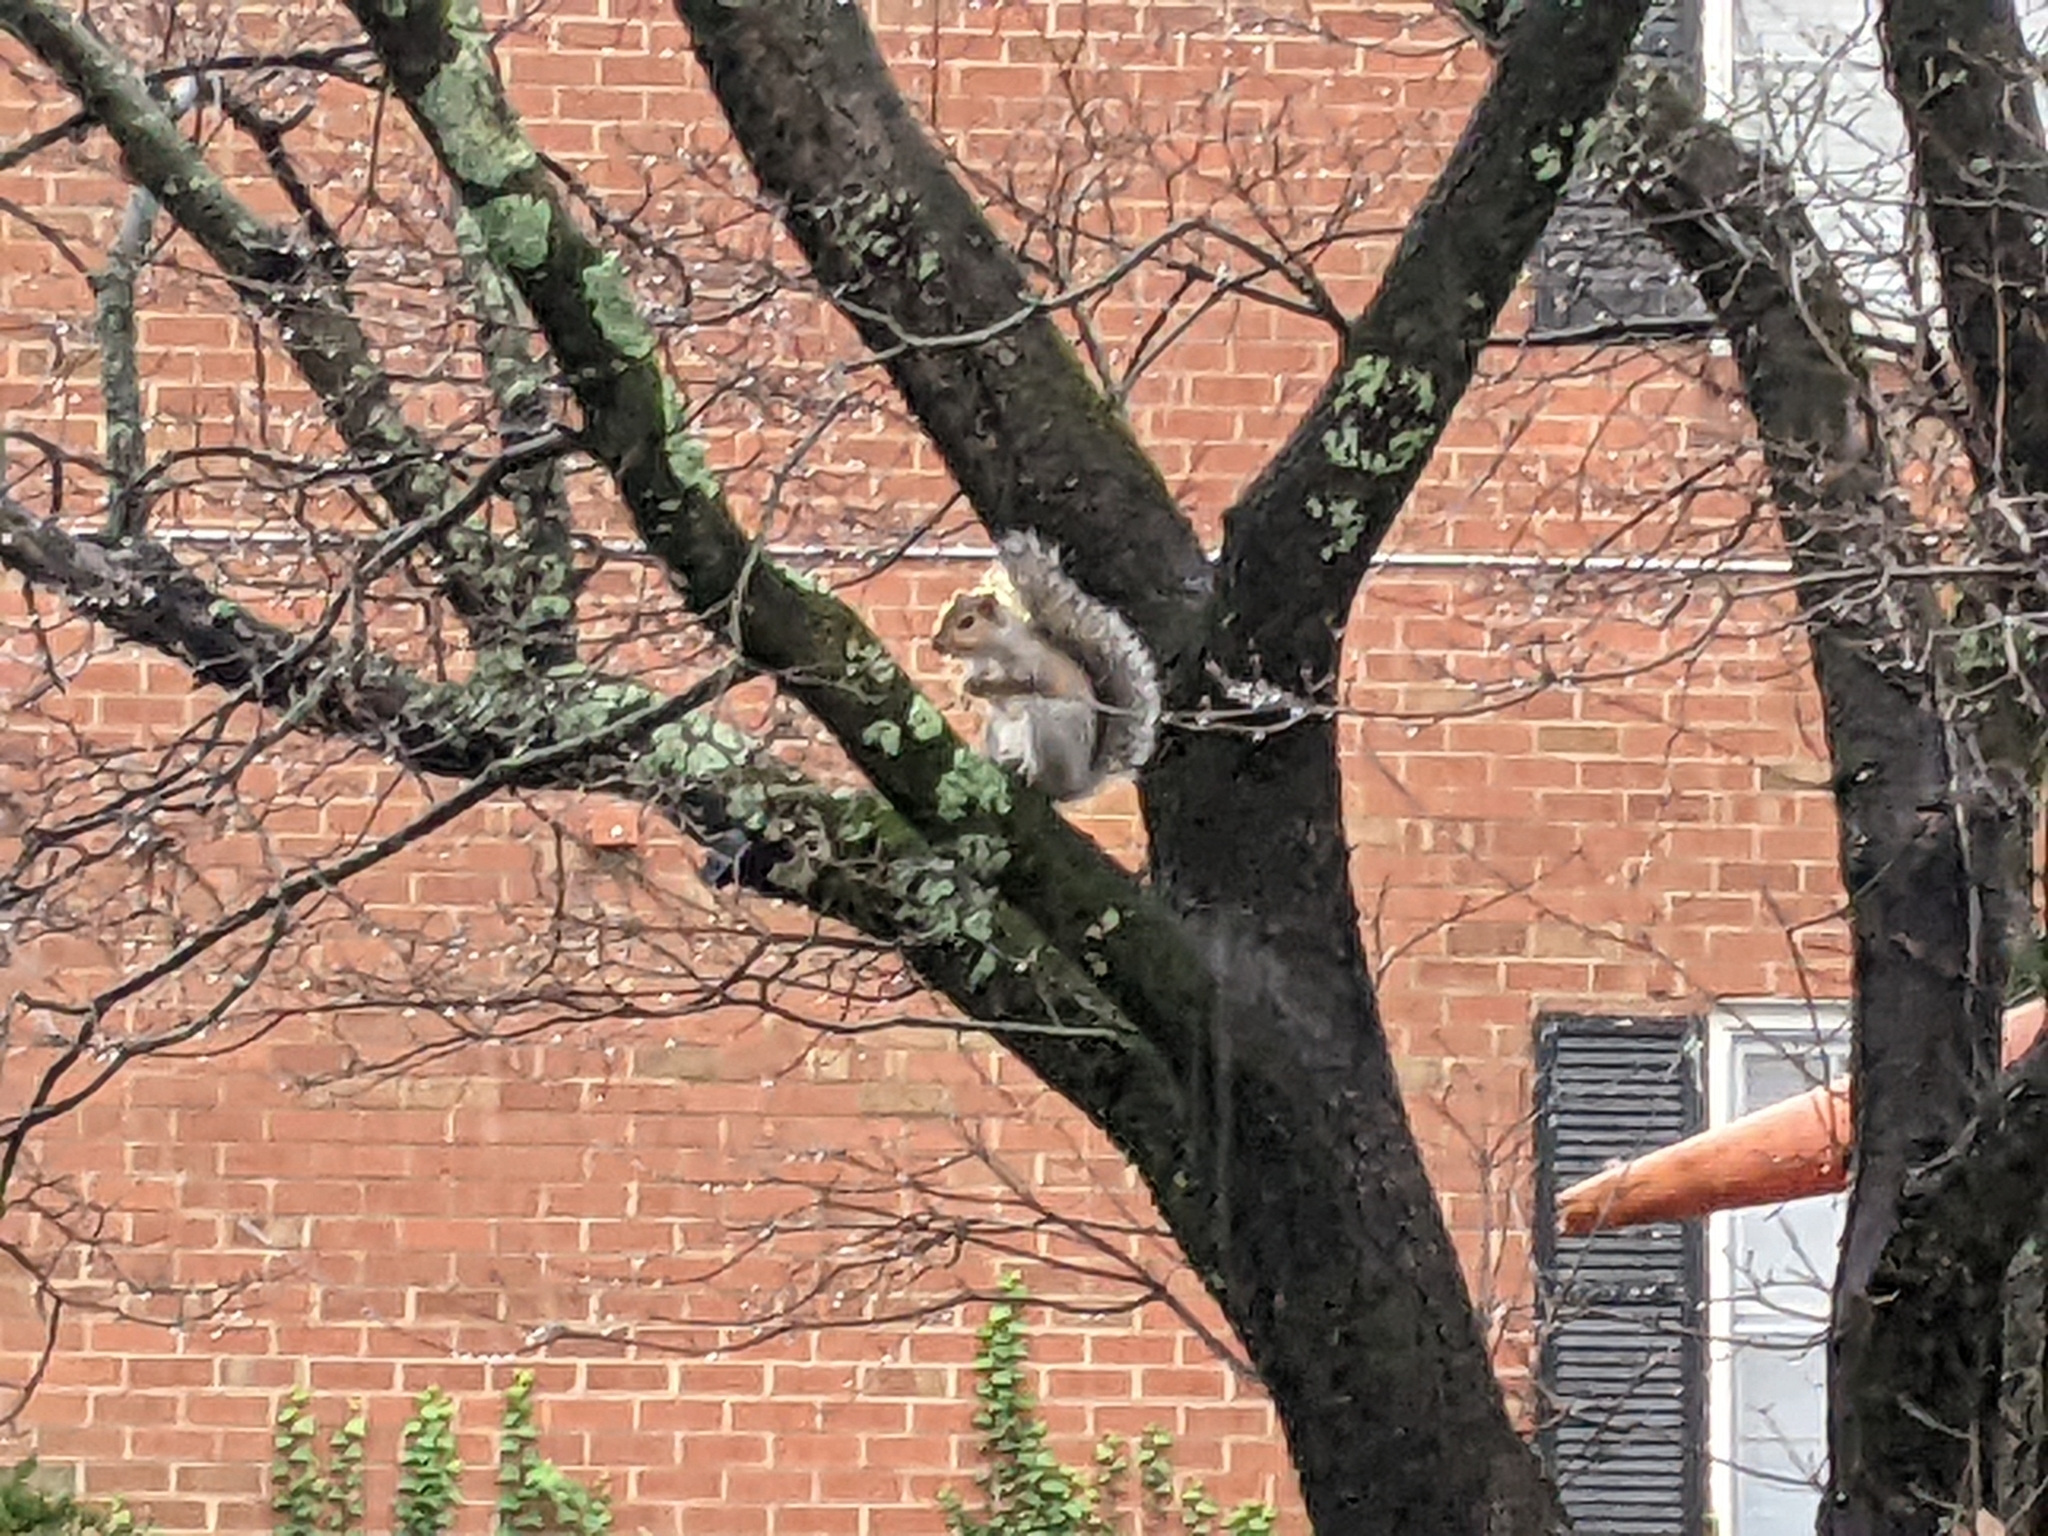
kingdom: Animalia
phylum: Chordata
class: Mammalia
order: Rodentia
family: Sciuridae
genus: Sciurus
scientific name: Sciurus carolinensis
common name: Eastern gray squirrel
